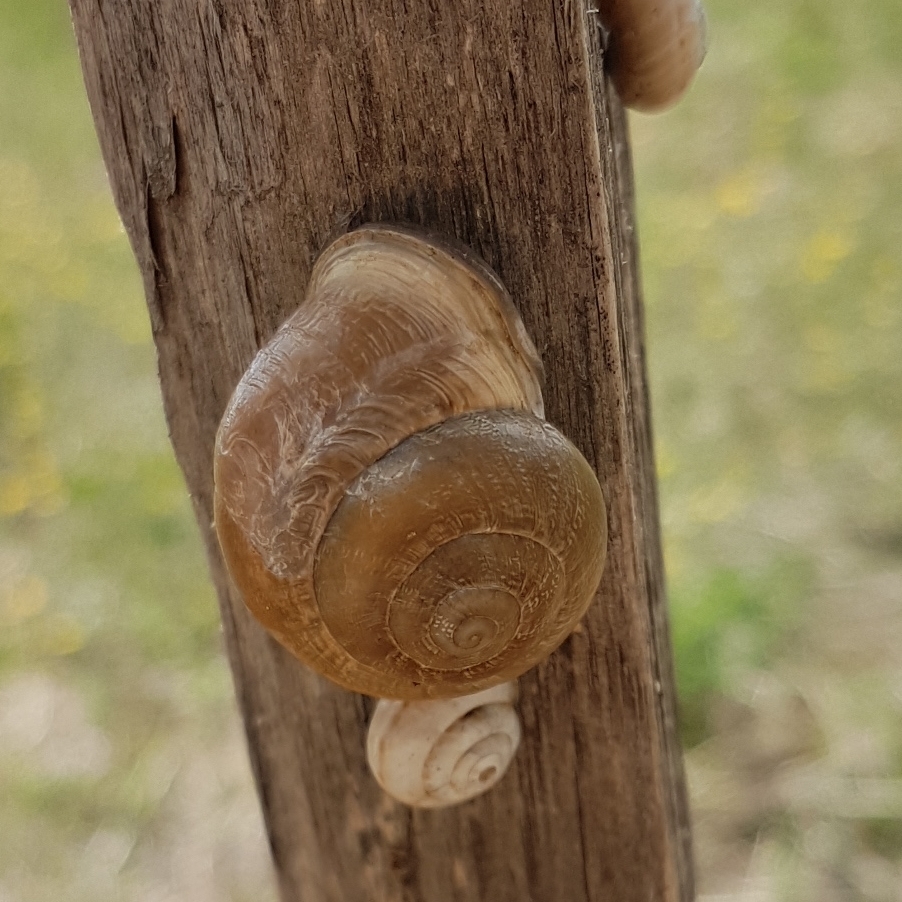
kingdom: Animalia
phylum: Mollusca
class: Gastropoda
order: Stylommatophora
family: Helicidae
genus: Eobania
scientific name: Eobania vermiculata
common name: Chocolateband snail
